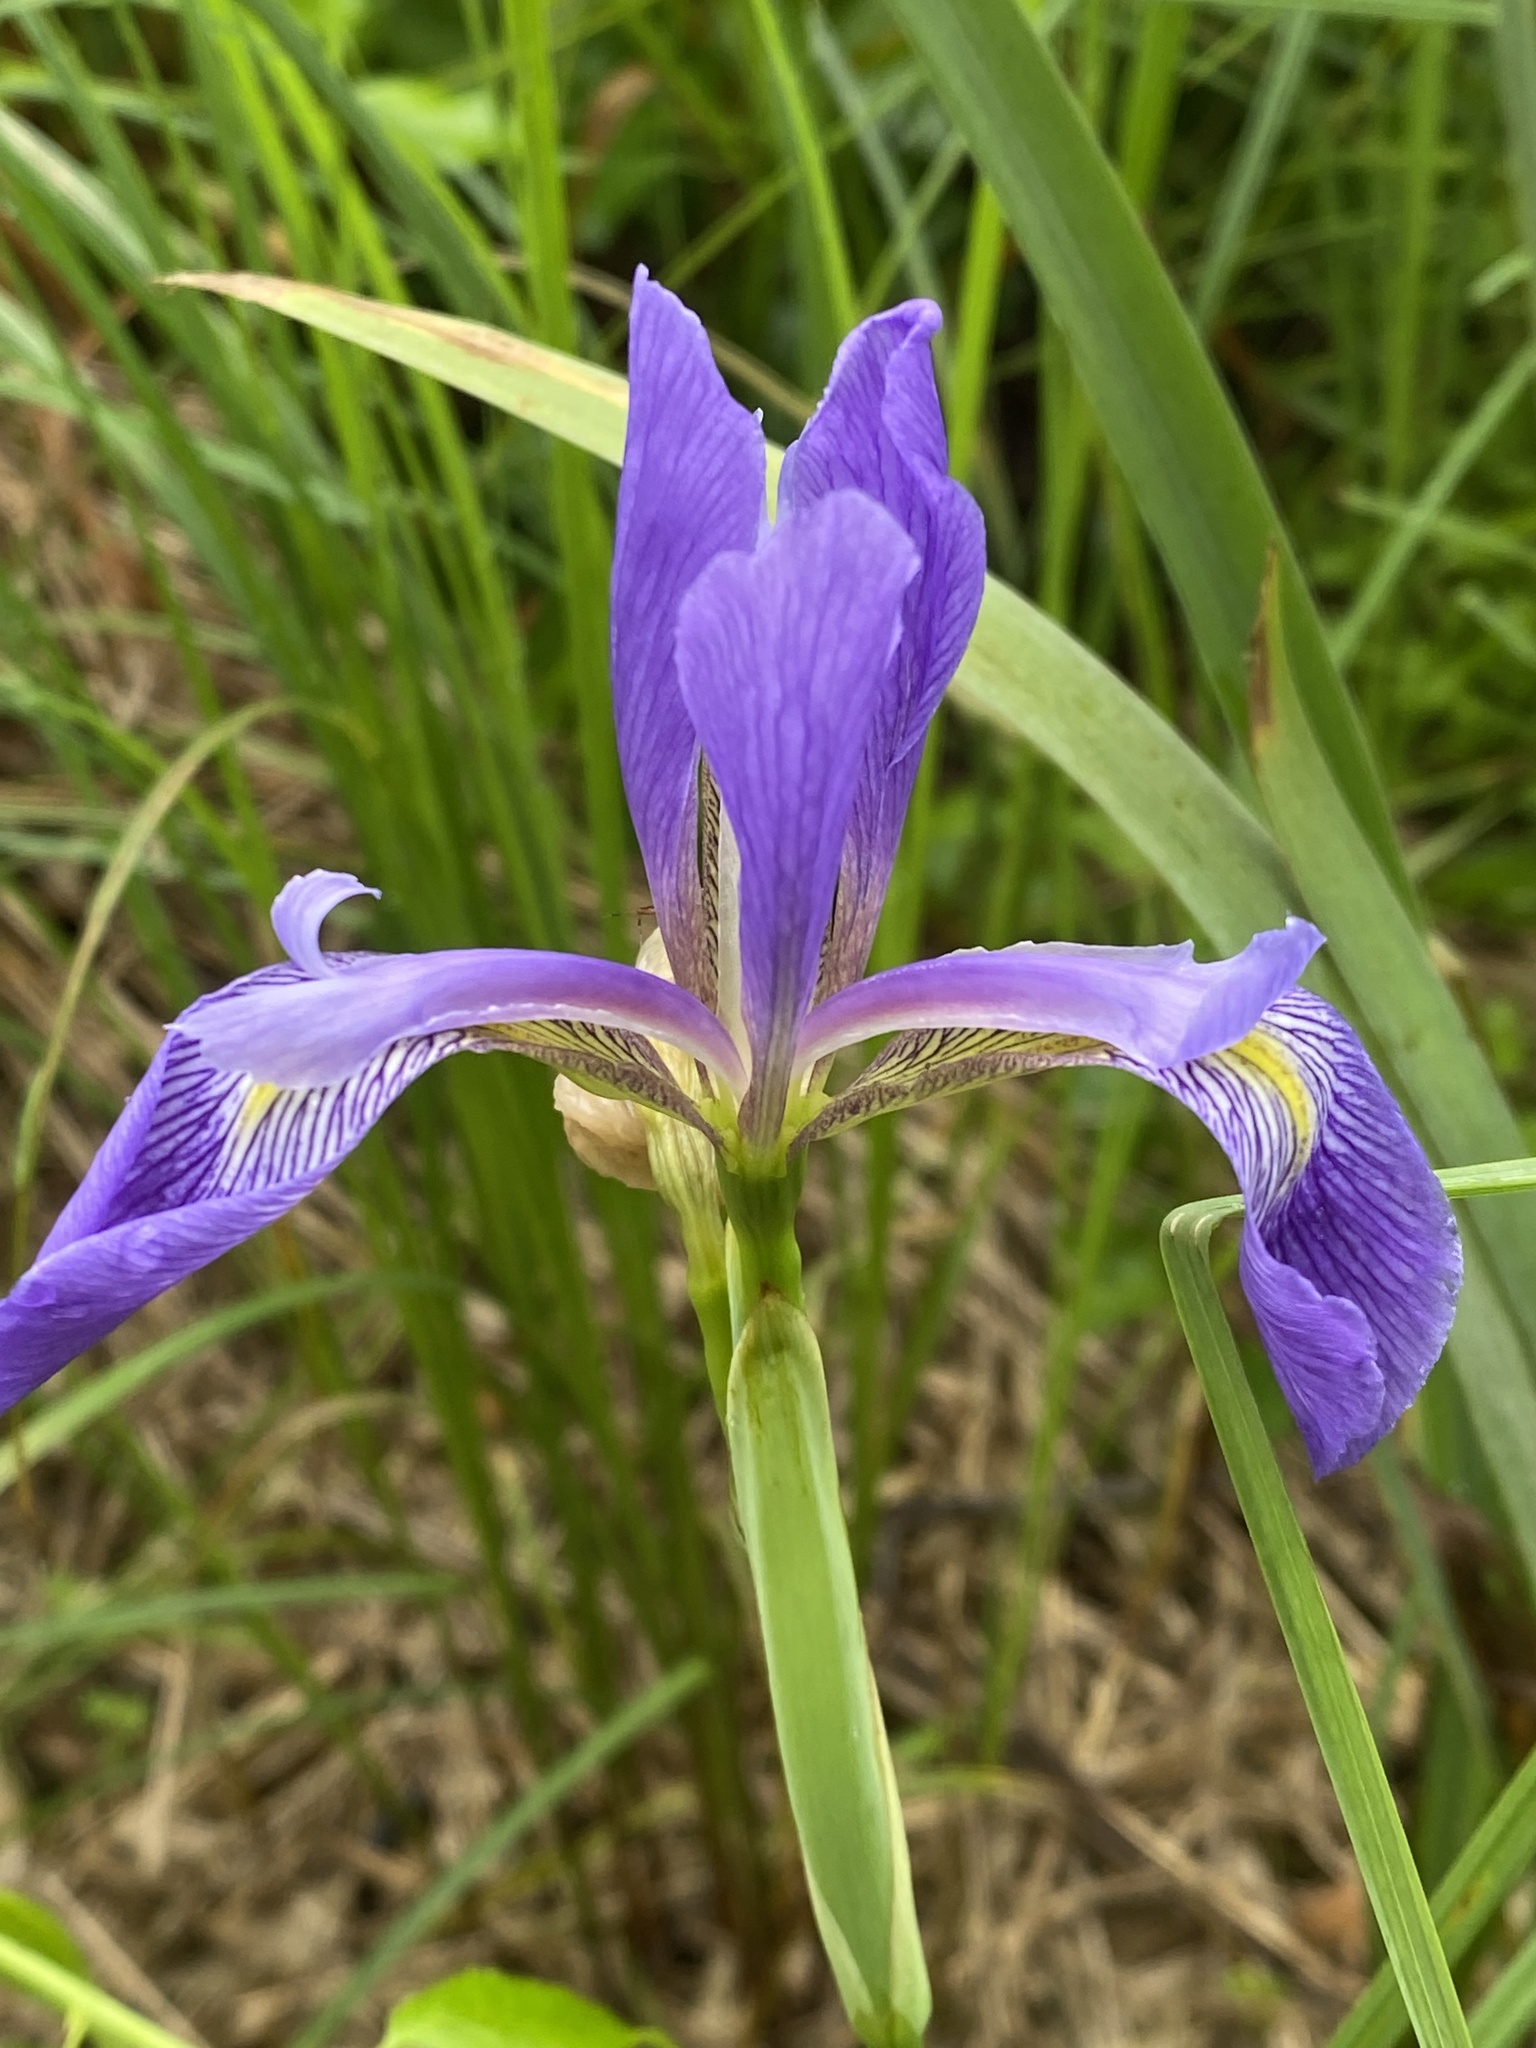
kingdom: Plantae
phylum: Tracheophyta
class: Liliopsida
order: Asparagales
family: Iridaceae
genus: Iris
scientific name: Iris virginica
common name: Southern blue flag
